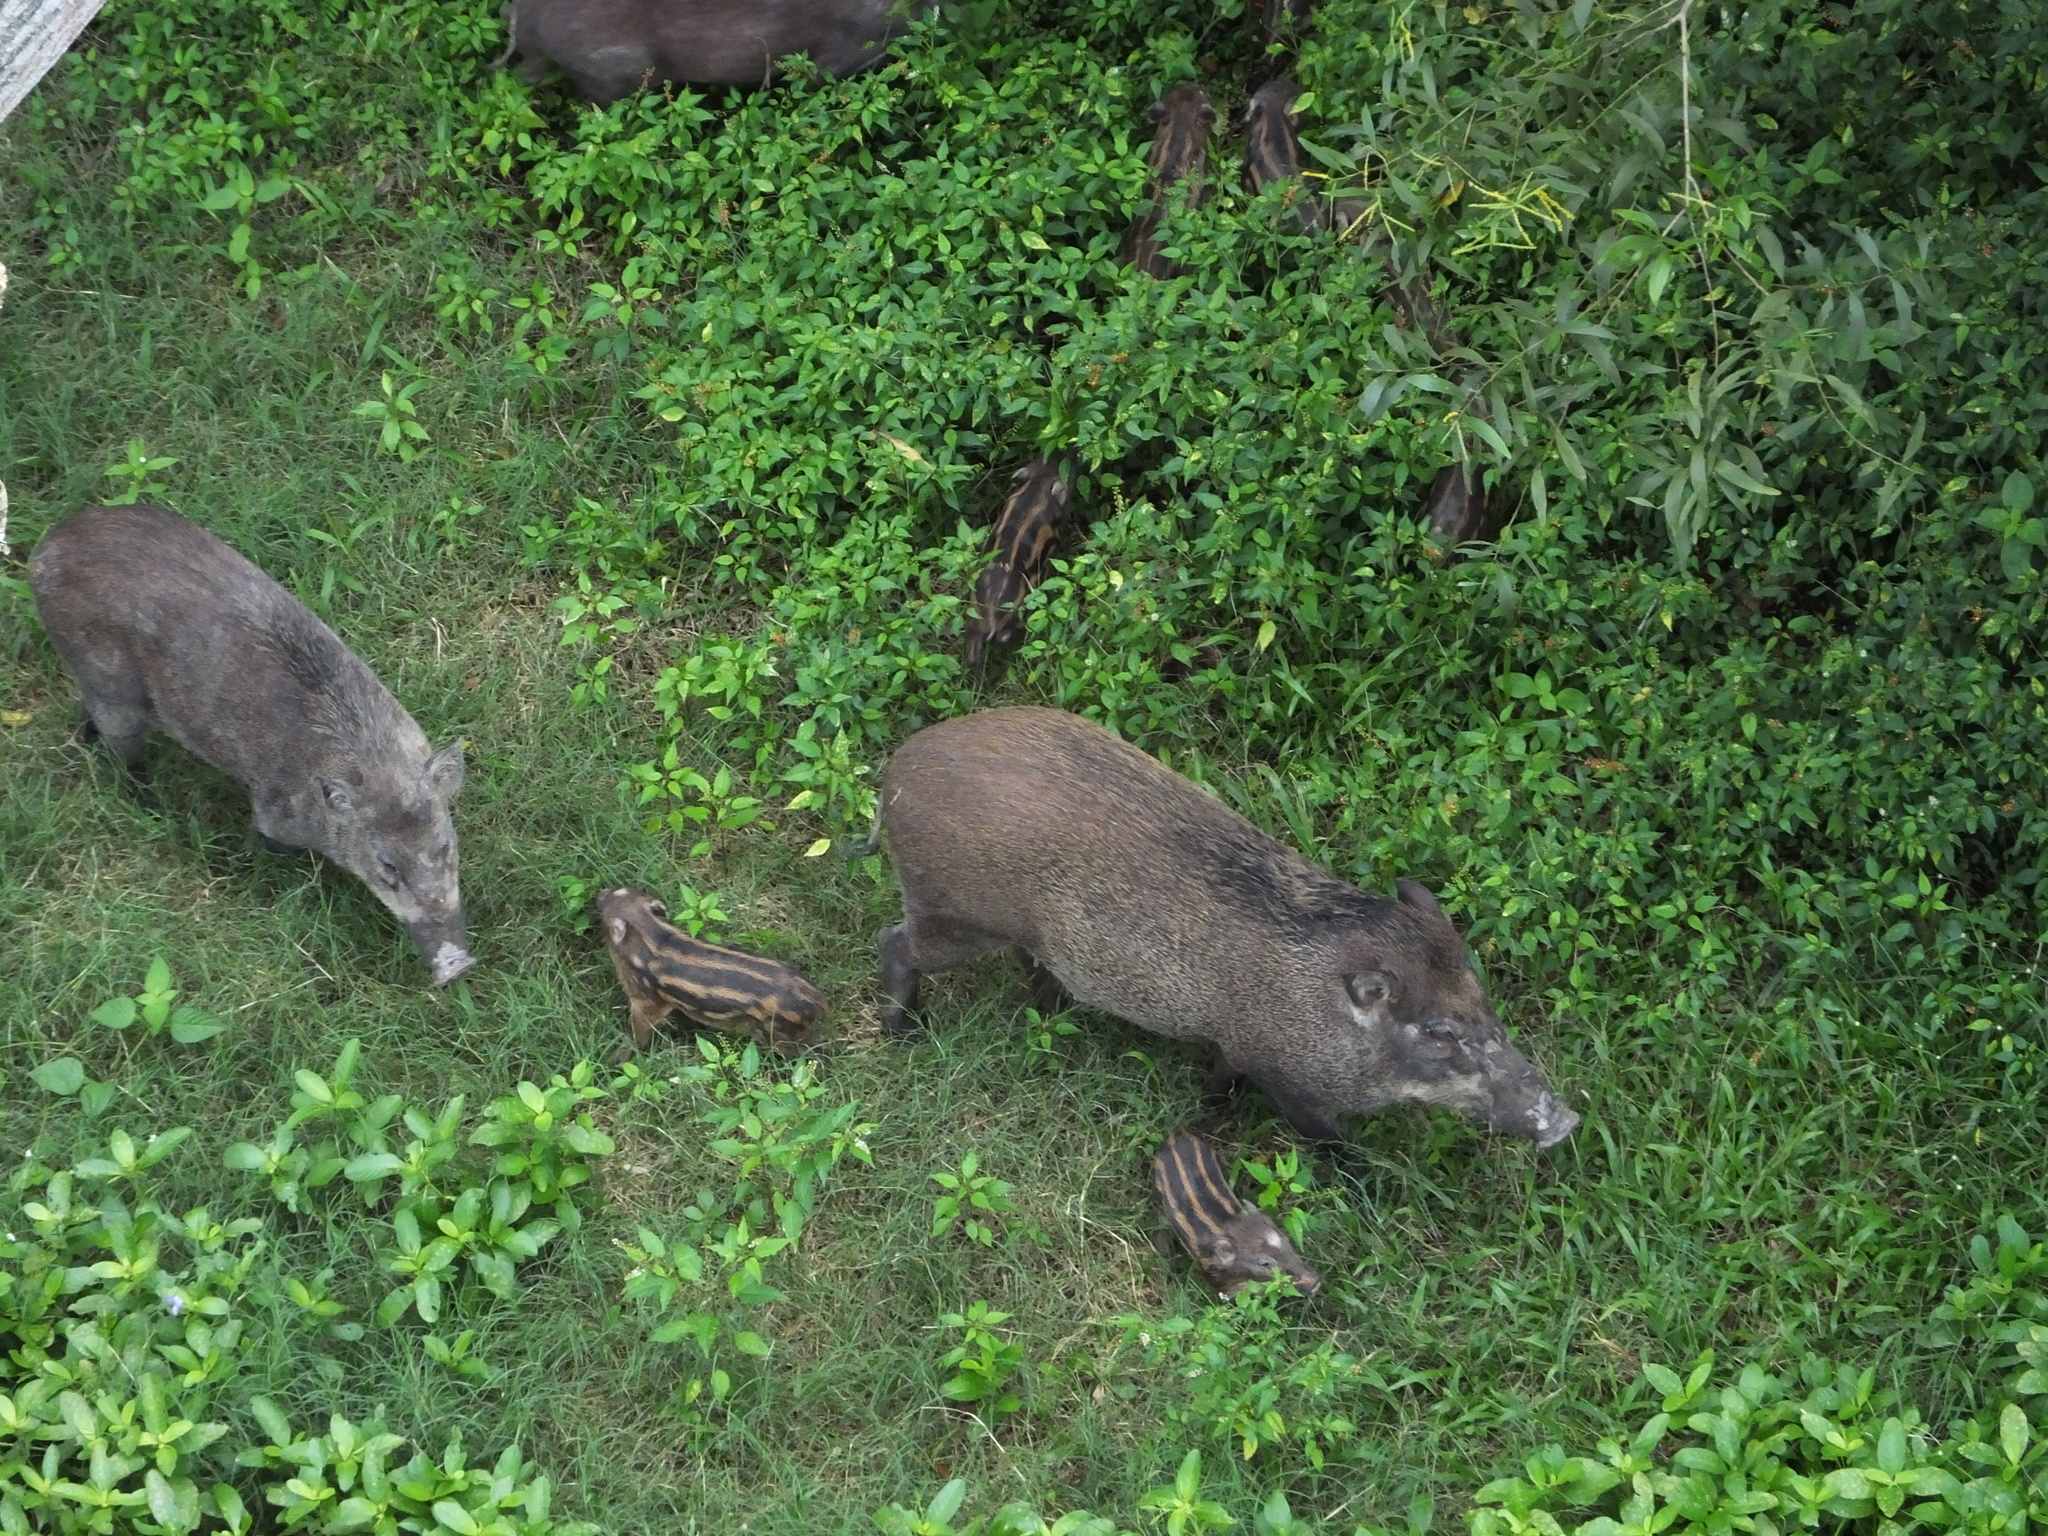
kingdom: Animalia
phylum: Chordata
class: Mammalia
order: Artiodactyla
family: Suidae
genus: Sus
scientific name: Sus scrofa
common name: Wild boar
